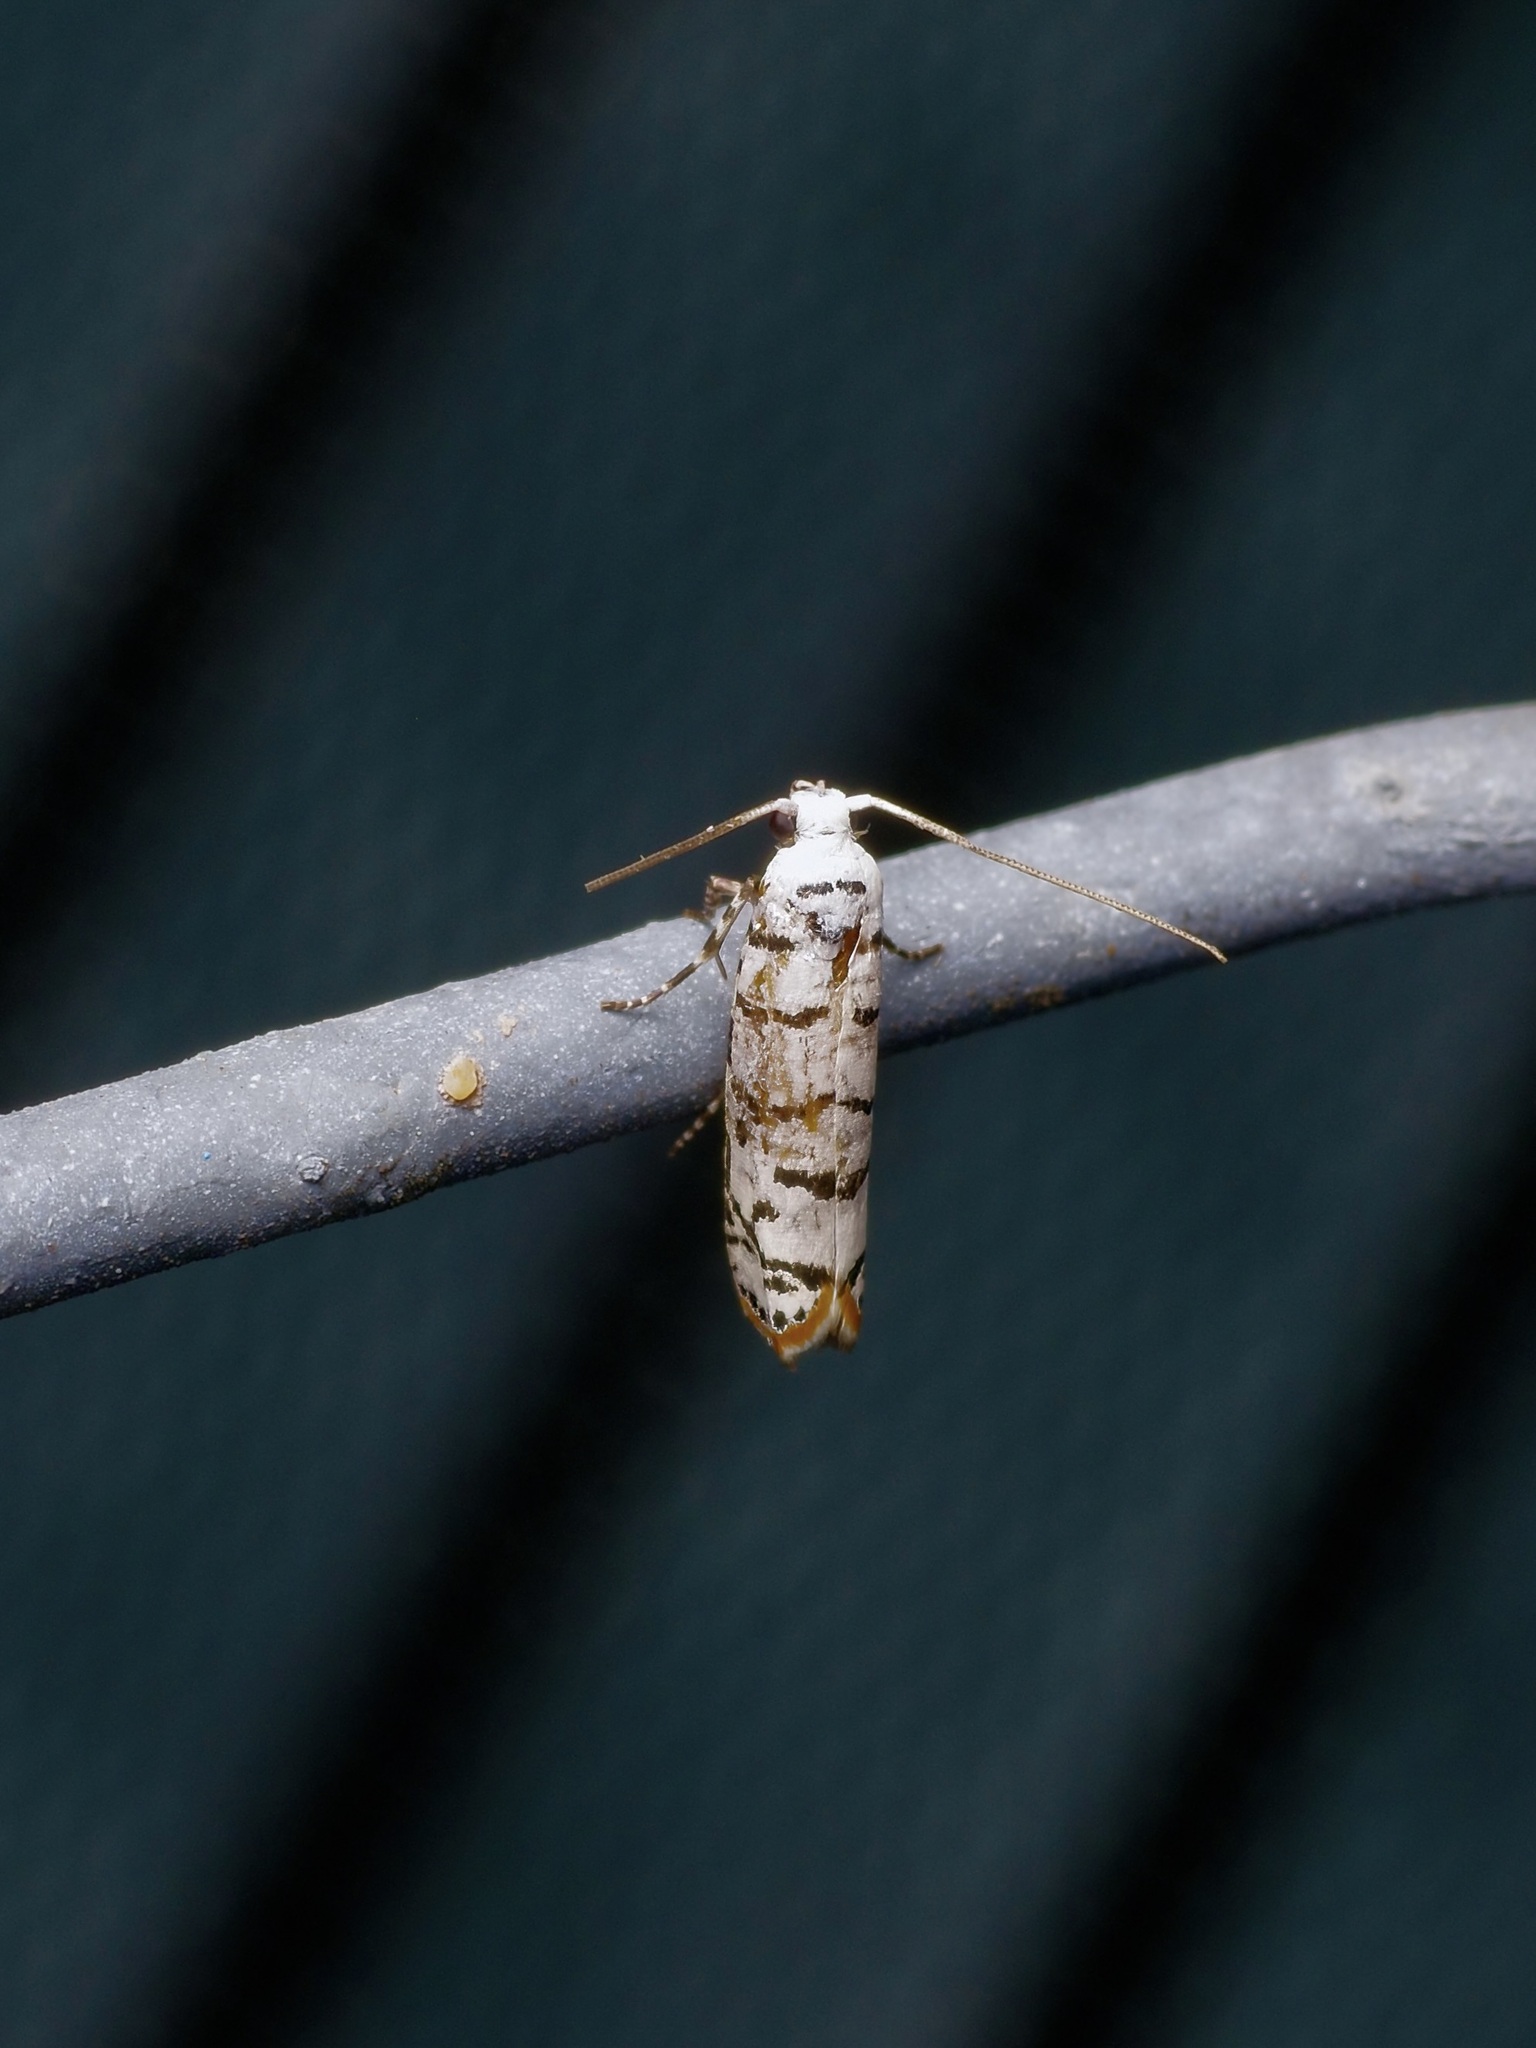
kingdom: Animalia
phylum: Arthropoda
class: Insecta
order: Lepidoptera
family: Ethmiidae
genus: Ethmia
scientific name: Ethmia delliella
